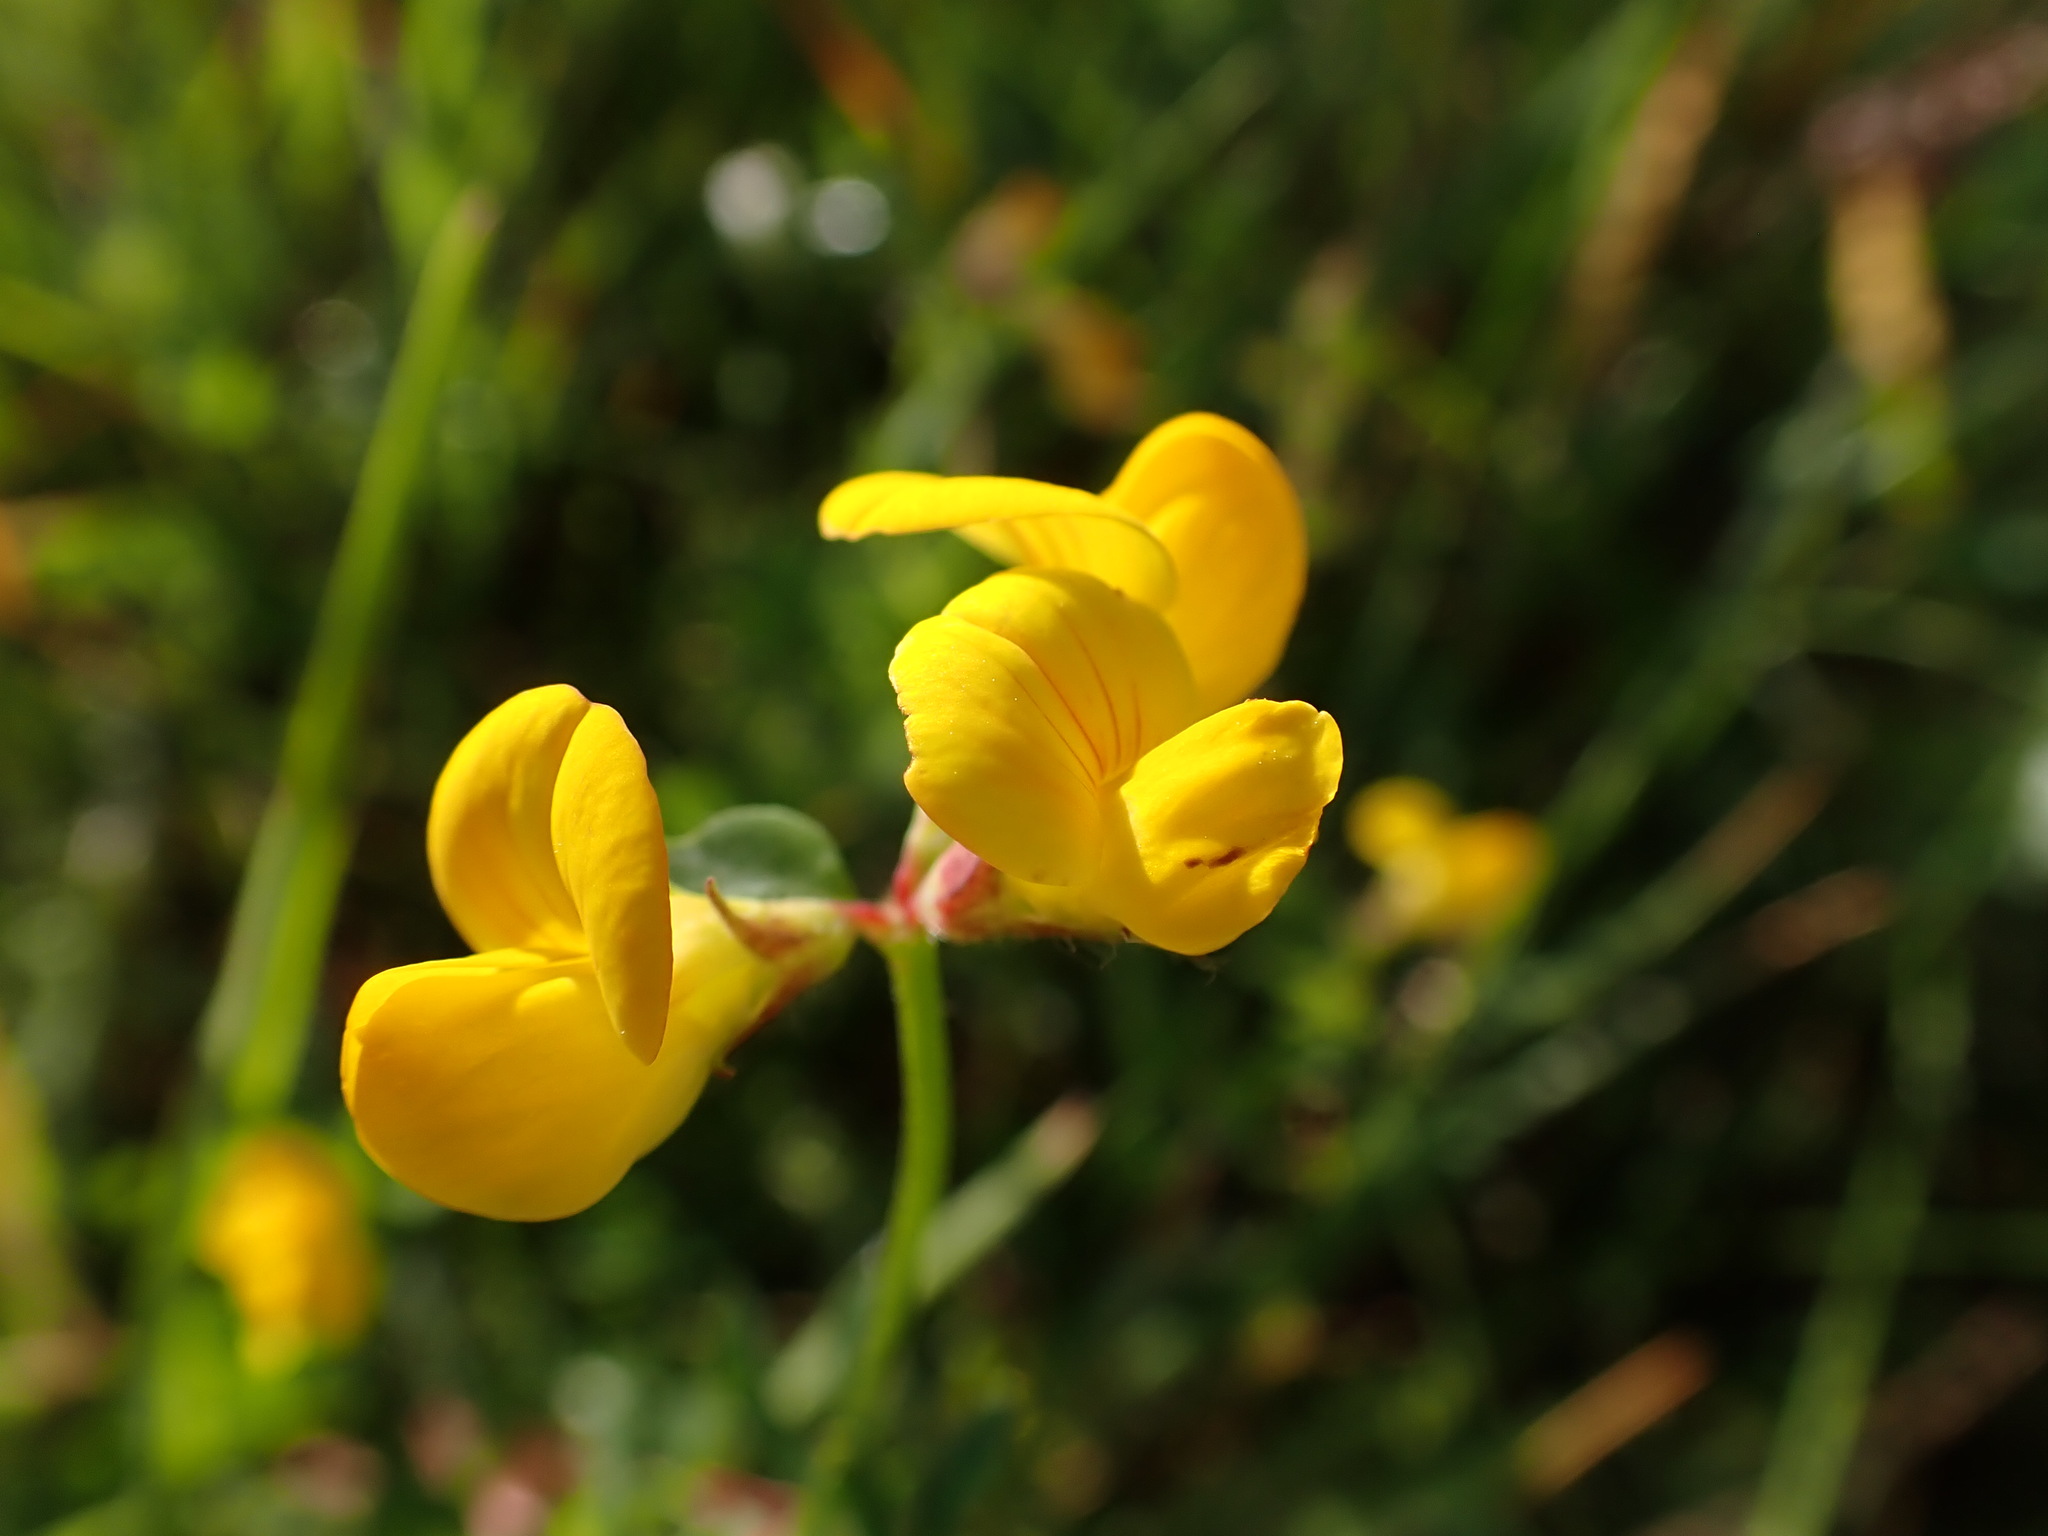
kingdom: Plantae
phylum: Tracheophyta
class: Magnoliopsida
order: Fabales
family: Fabaceae
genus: Lotus
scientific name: Lotus corniculatus
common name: Common bird's-foot-trefoil
